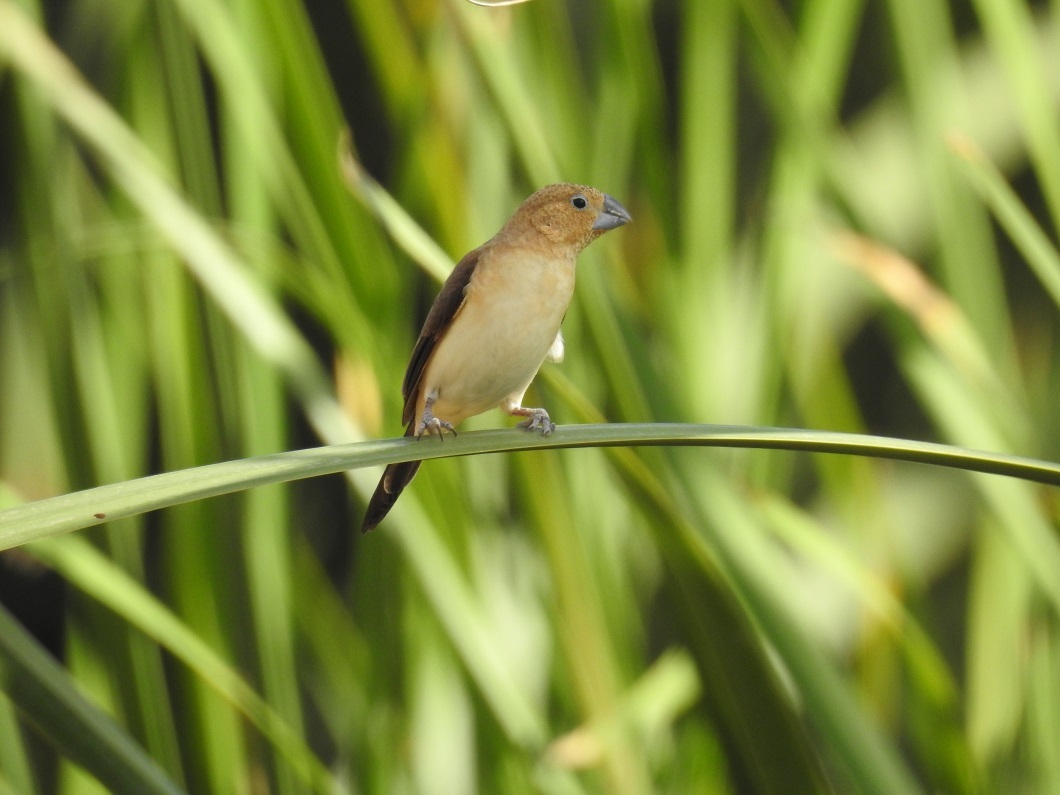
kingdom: Animalia
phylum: Chordata
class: Aves
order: Passeriformes
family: Estrildidae
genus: Euodice
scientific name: Euodice cantans
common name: African silverbill
